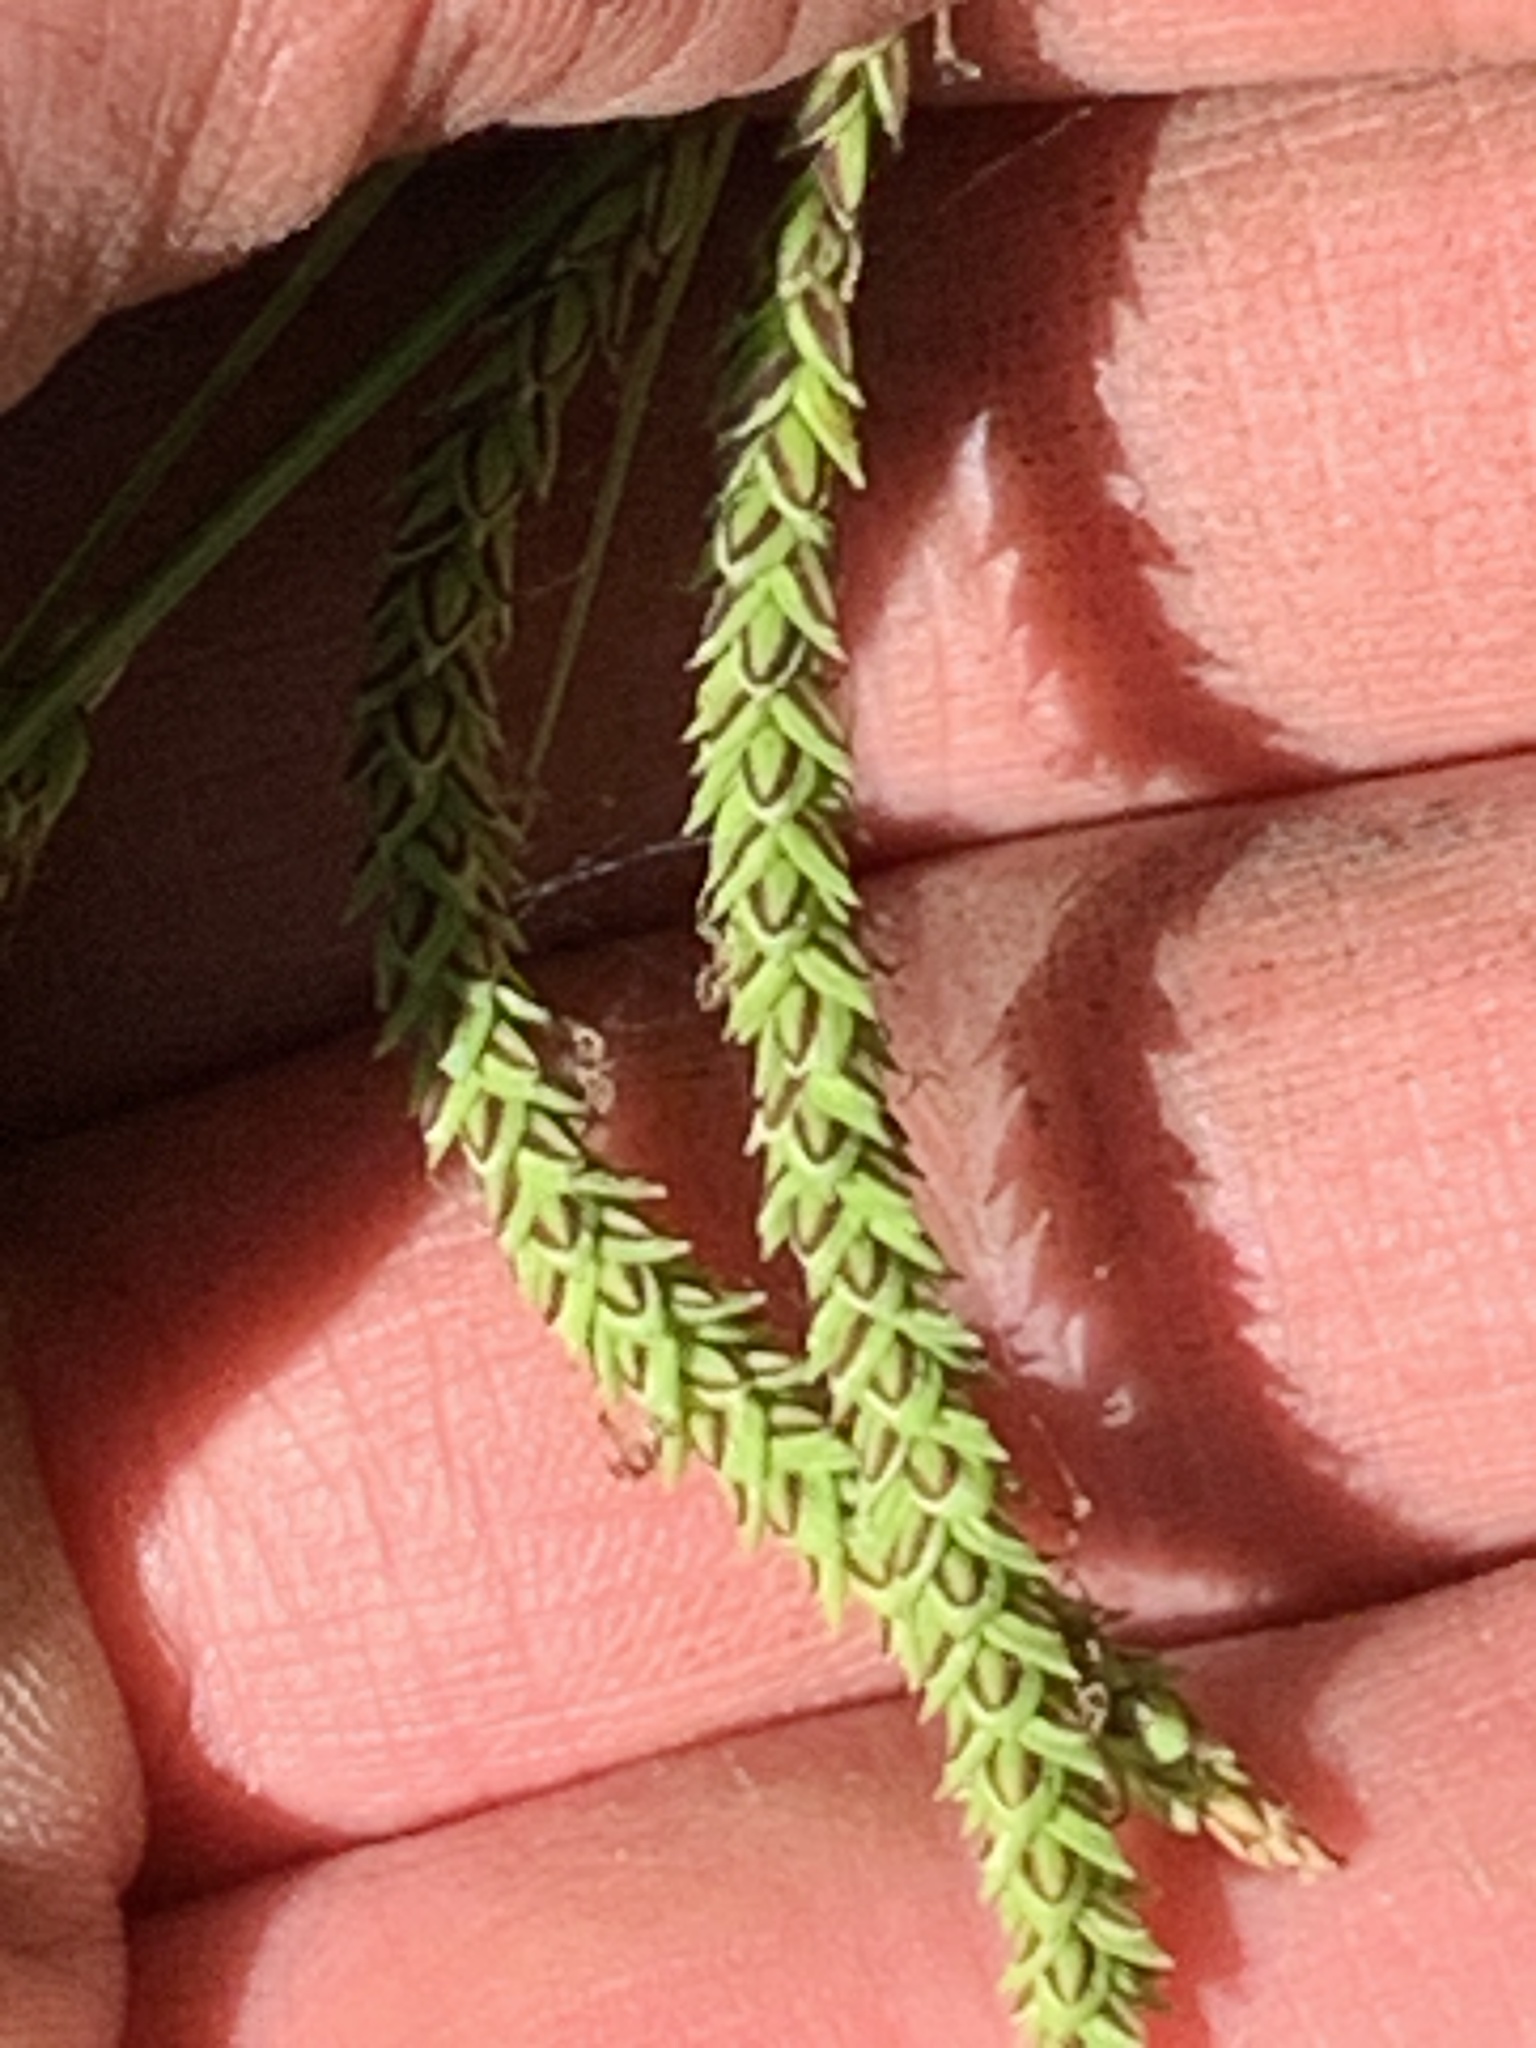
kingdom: Plantae
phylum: Tracheophyta
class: Liliopsida
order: Poales
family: Cyperaceae
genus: Carex
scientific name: Carex torta
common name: Twisted sedge
